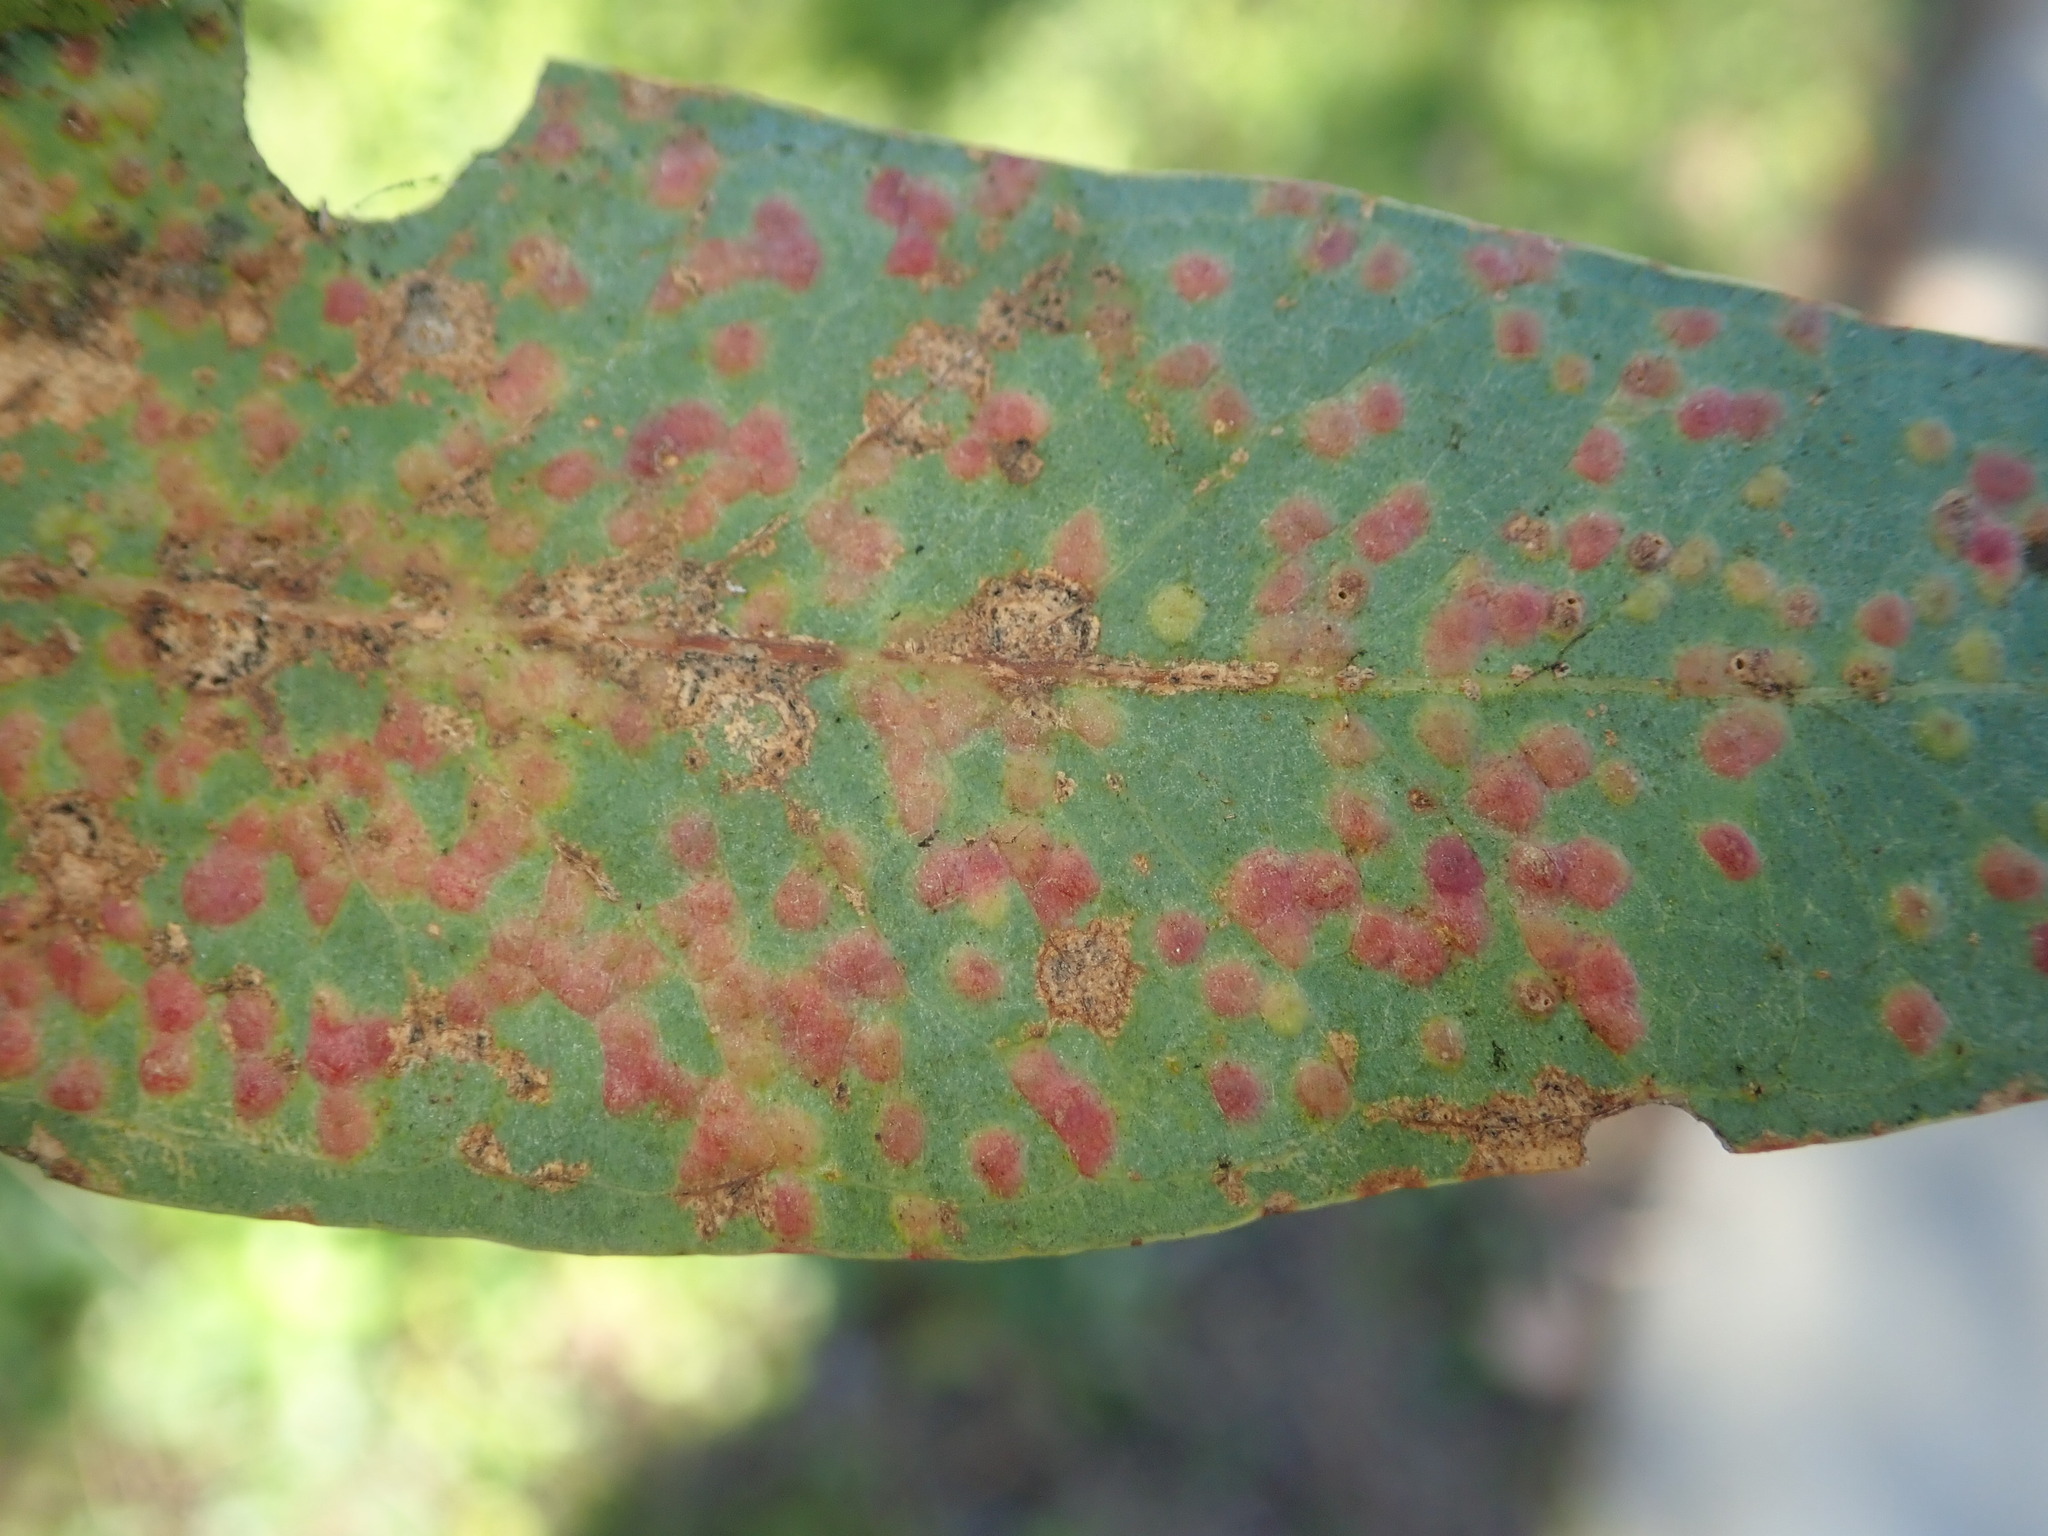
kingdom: Animalia
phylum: Arthropoda
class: Insecta
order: Hymenoptera
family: Eulophidae
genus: Ophelimus
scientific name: Ophelimus maskelli
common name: Gall wasp
